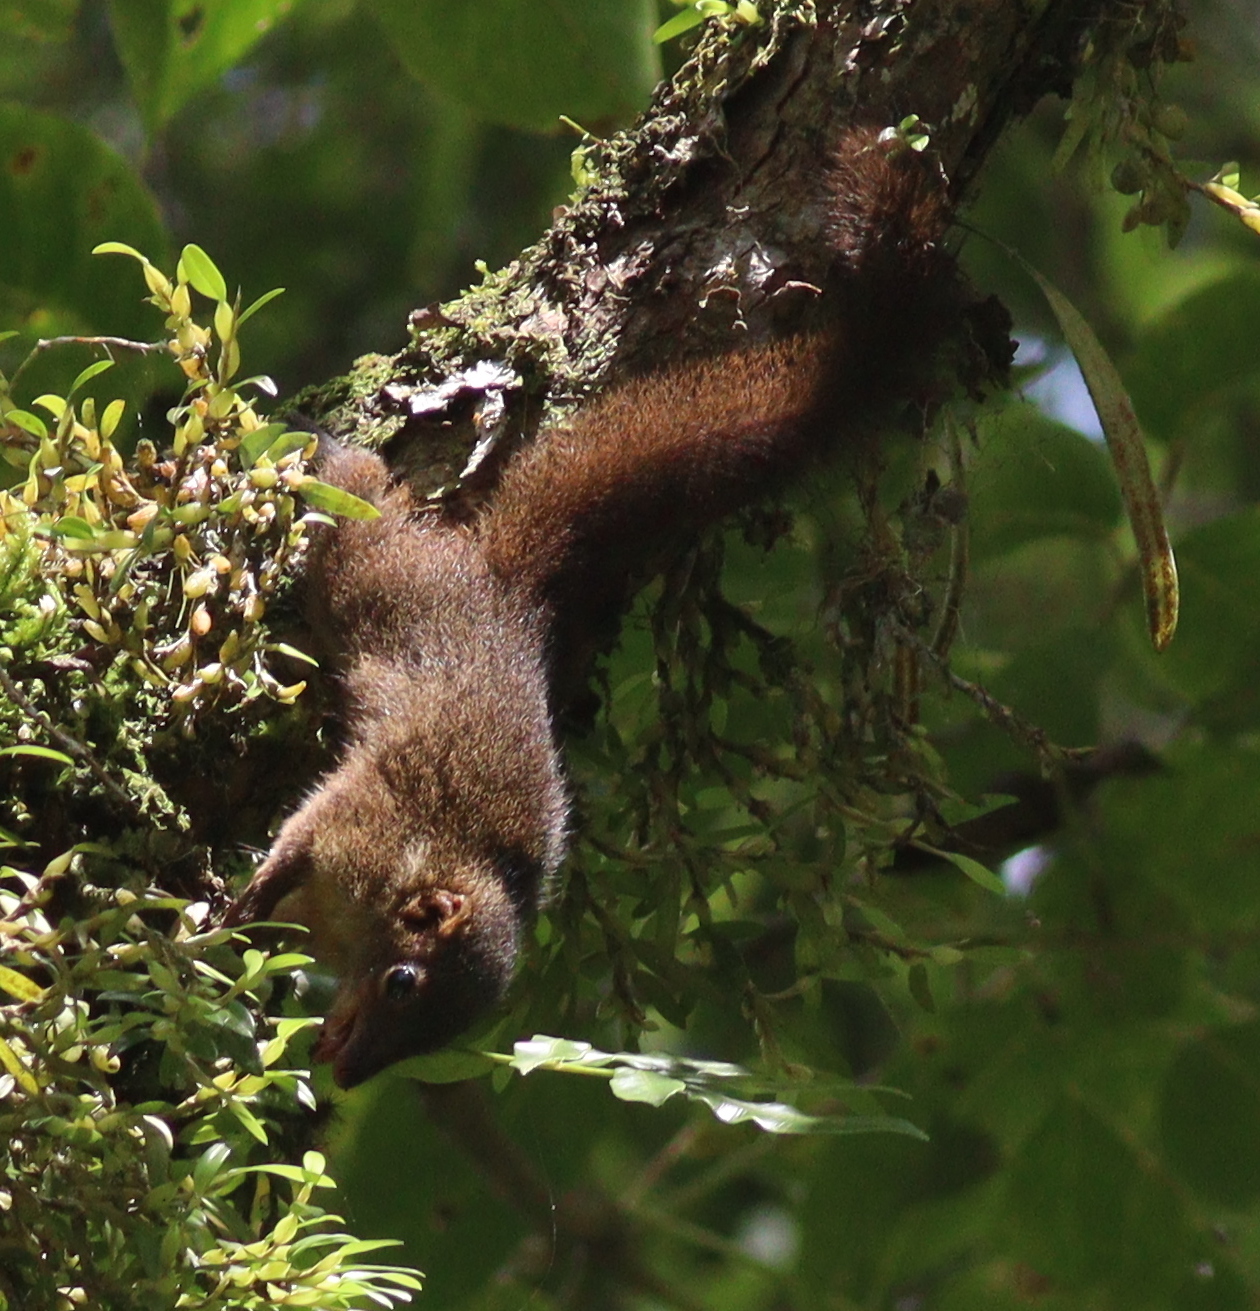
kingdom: Animalia
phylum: Chordata
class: Mammalia
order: Scandentia
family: Tupaiidae
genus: Tupaia
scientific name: Tupaia javanica
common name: Horsfield's treeshrew
